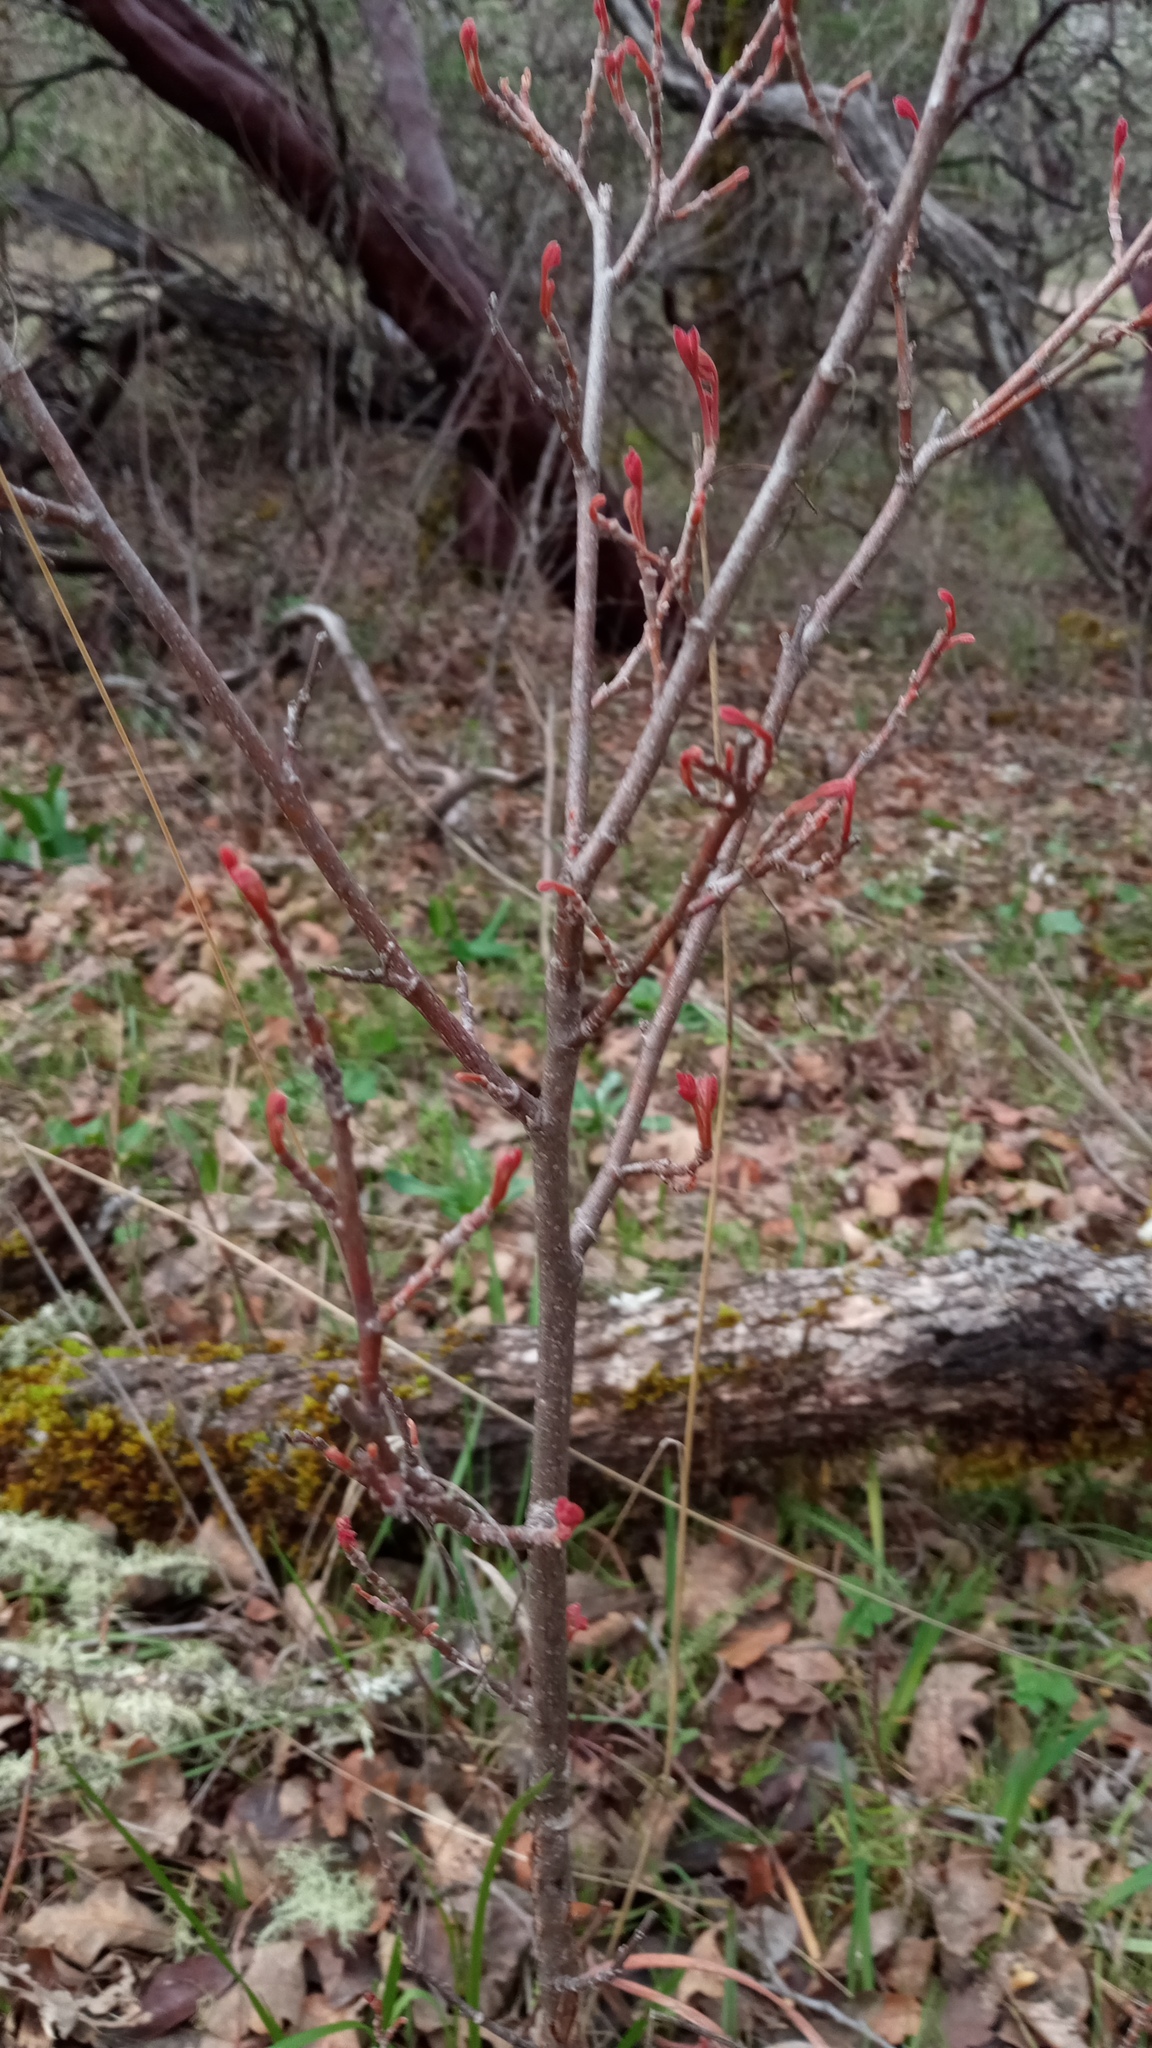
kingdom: Plantae
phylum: Tracheophyta
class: Magnoliopsida
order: Sapindales
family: Anacardiaceae
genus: Toxicodendron
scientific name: Toxicodendron diversilobum
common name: Pacific poison-oak
